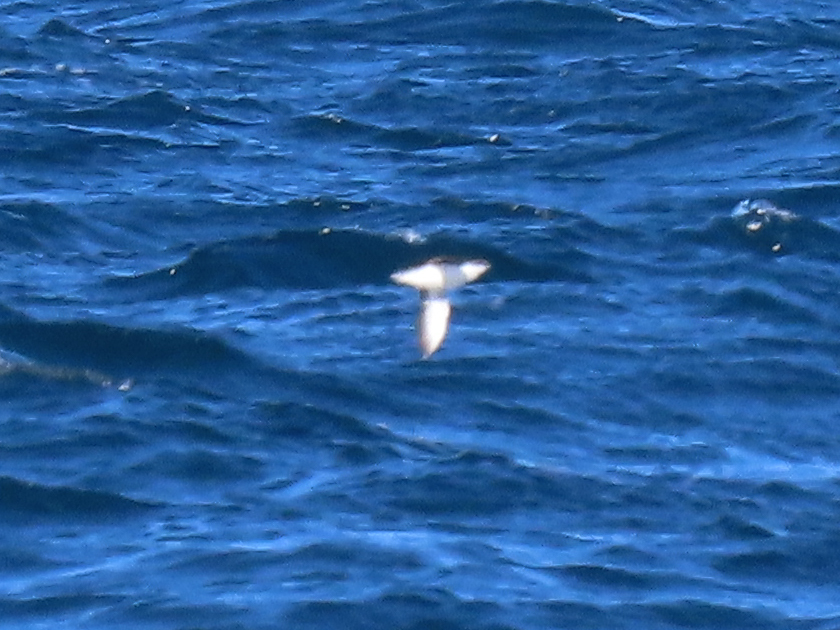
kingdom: Animalia
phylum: Chordata
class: Aves
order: Charadriiformes
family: Alcidae
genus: Synthliboramphus
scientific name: Synthliboramphus scrippsi
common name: Scripps's murrelet
